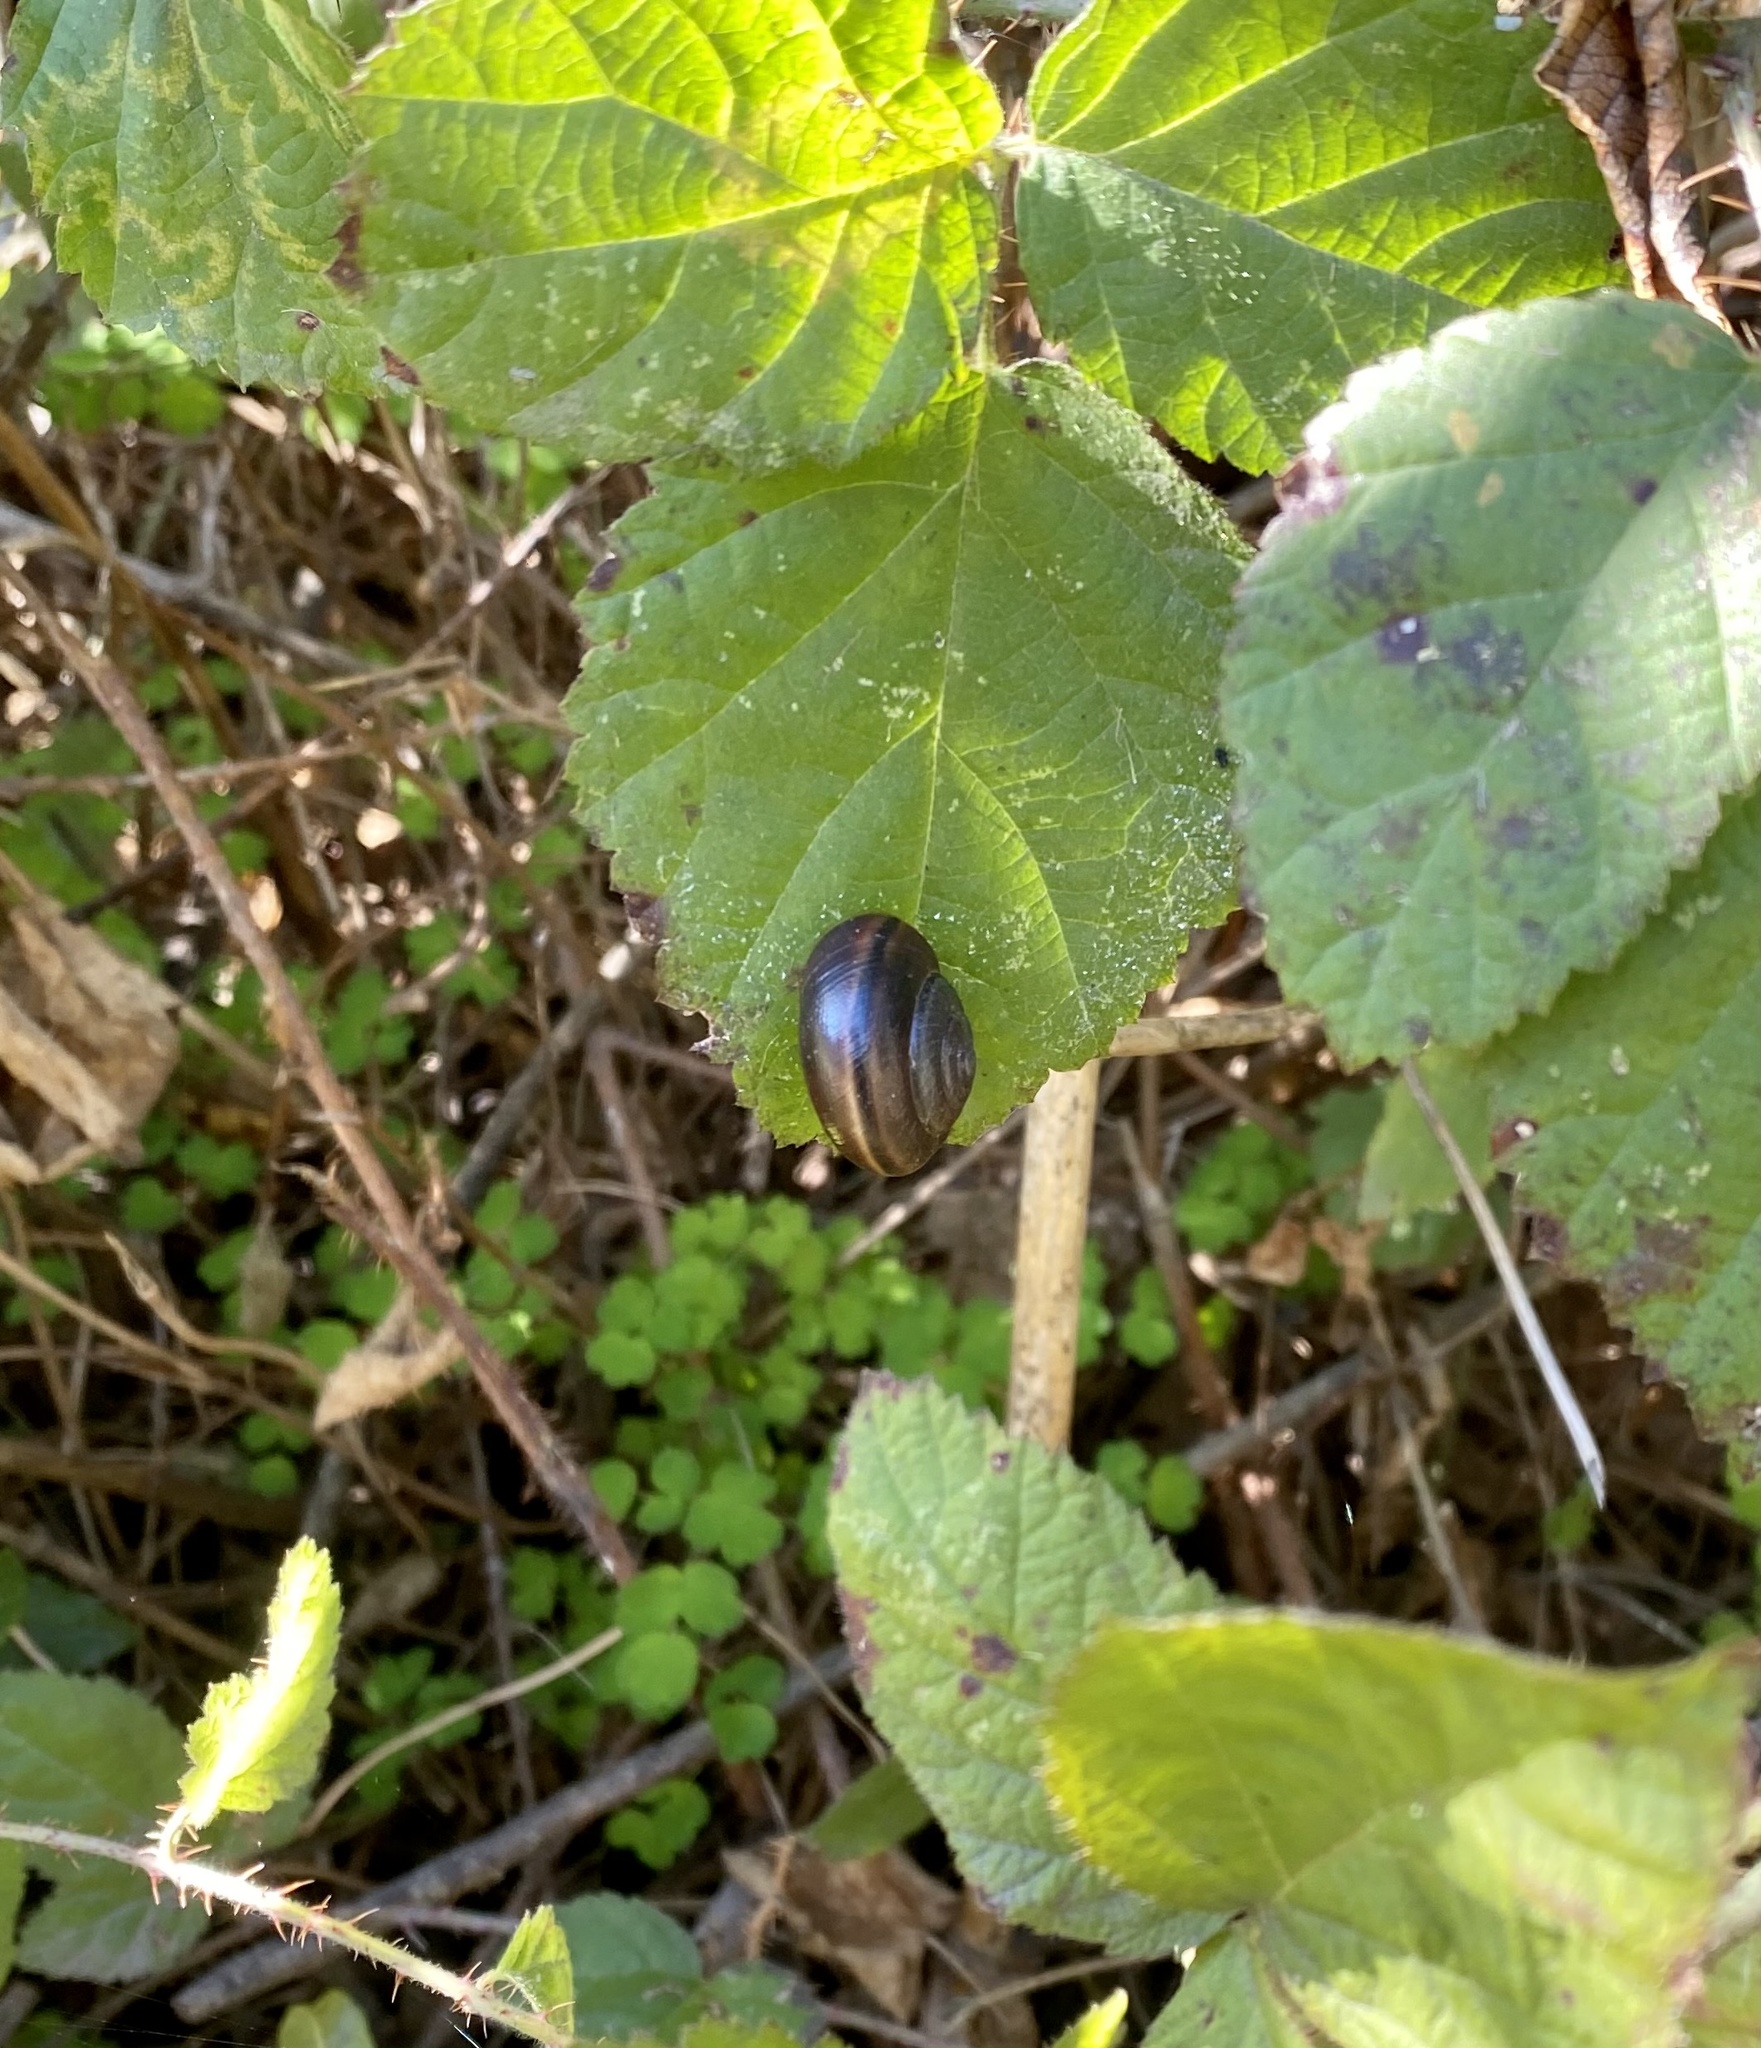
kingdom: Animalia
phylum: Mollusca
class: Gastropoda
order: Stylommatophora
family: Xanthonychidae
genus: Helminthoglypta
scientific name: Helminthoglypta walkeriana
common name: Banded dune snail
